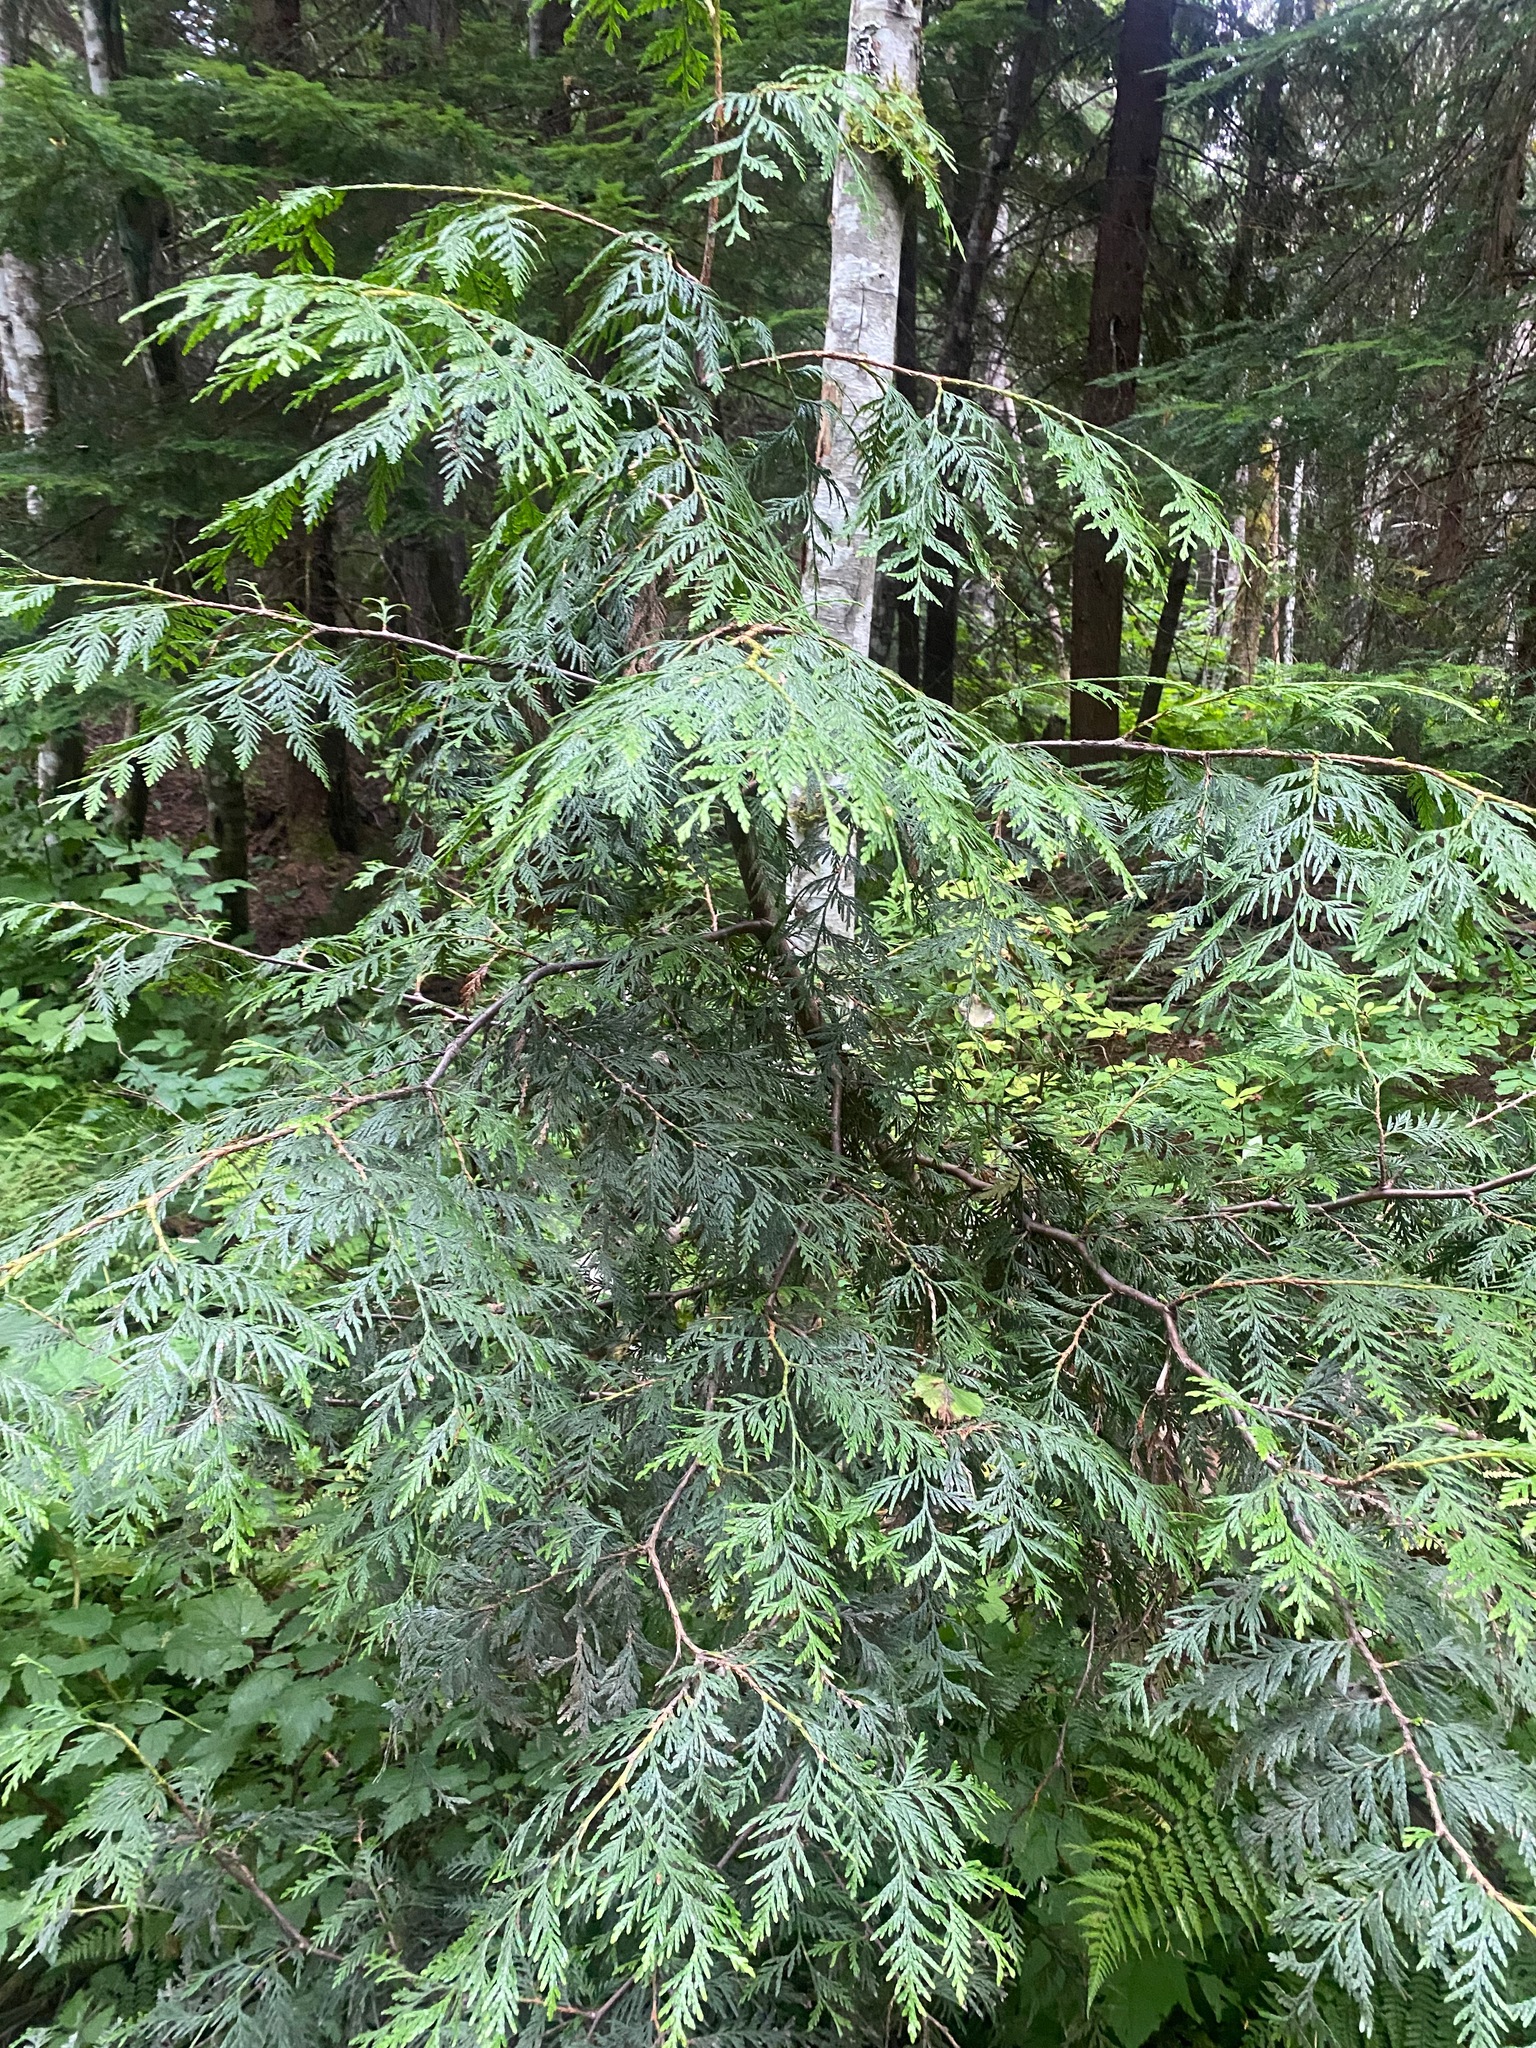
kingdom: Plantae
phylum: Tracheophyta
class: Pinopsida
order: Pinales
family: Cupressaceae
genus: Thuja
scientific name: Thuja plicata
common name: Western red-cedar
